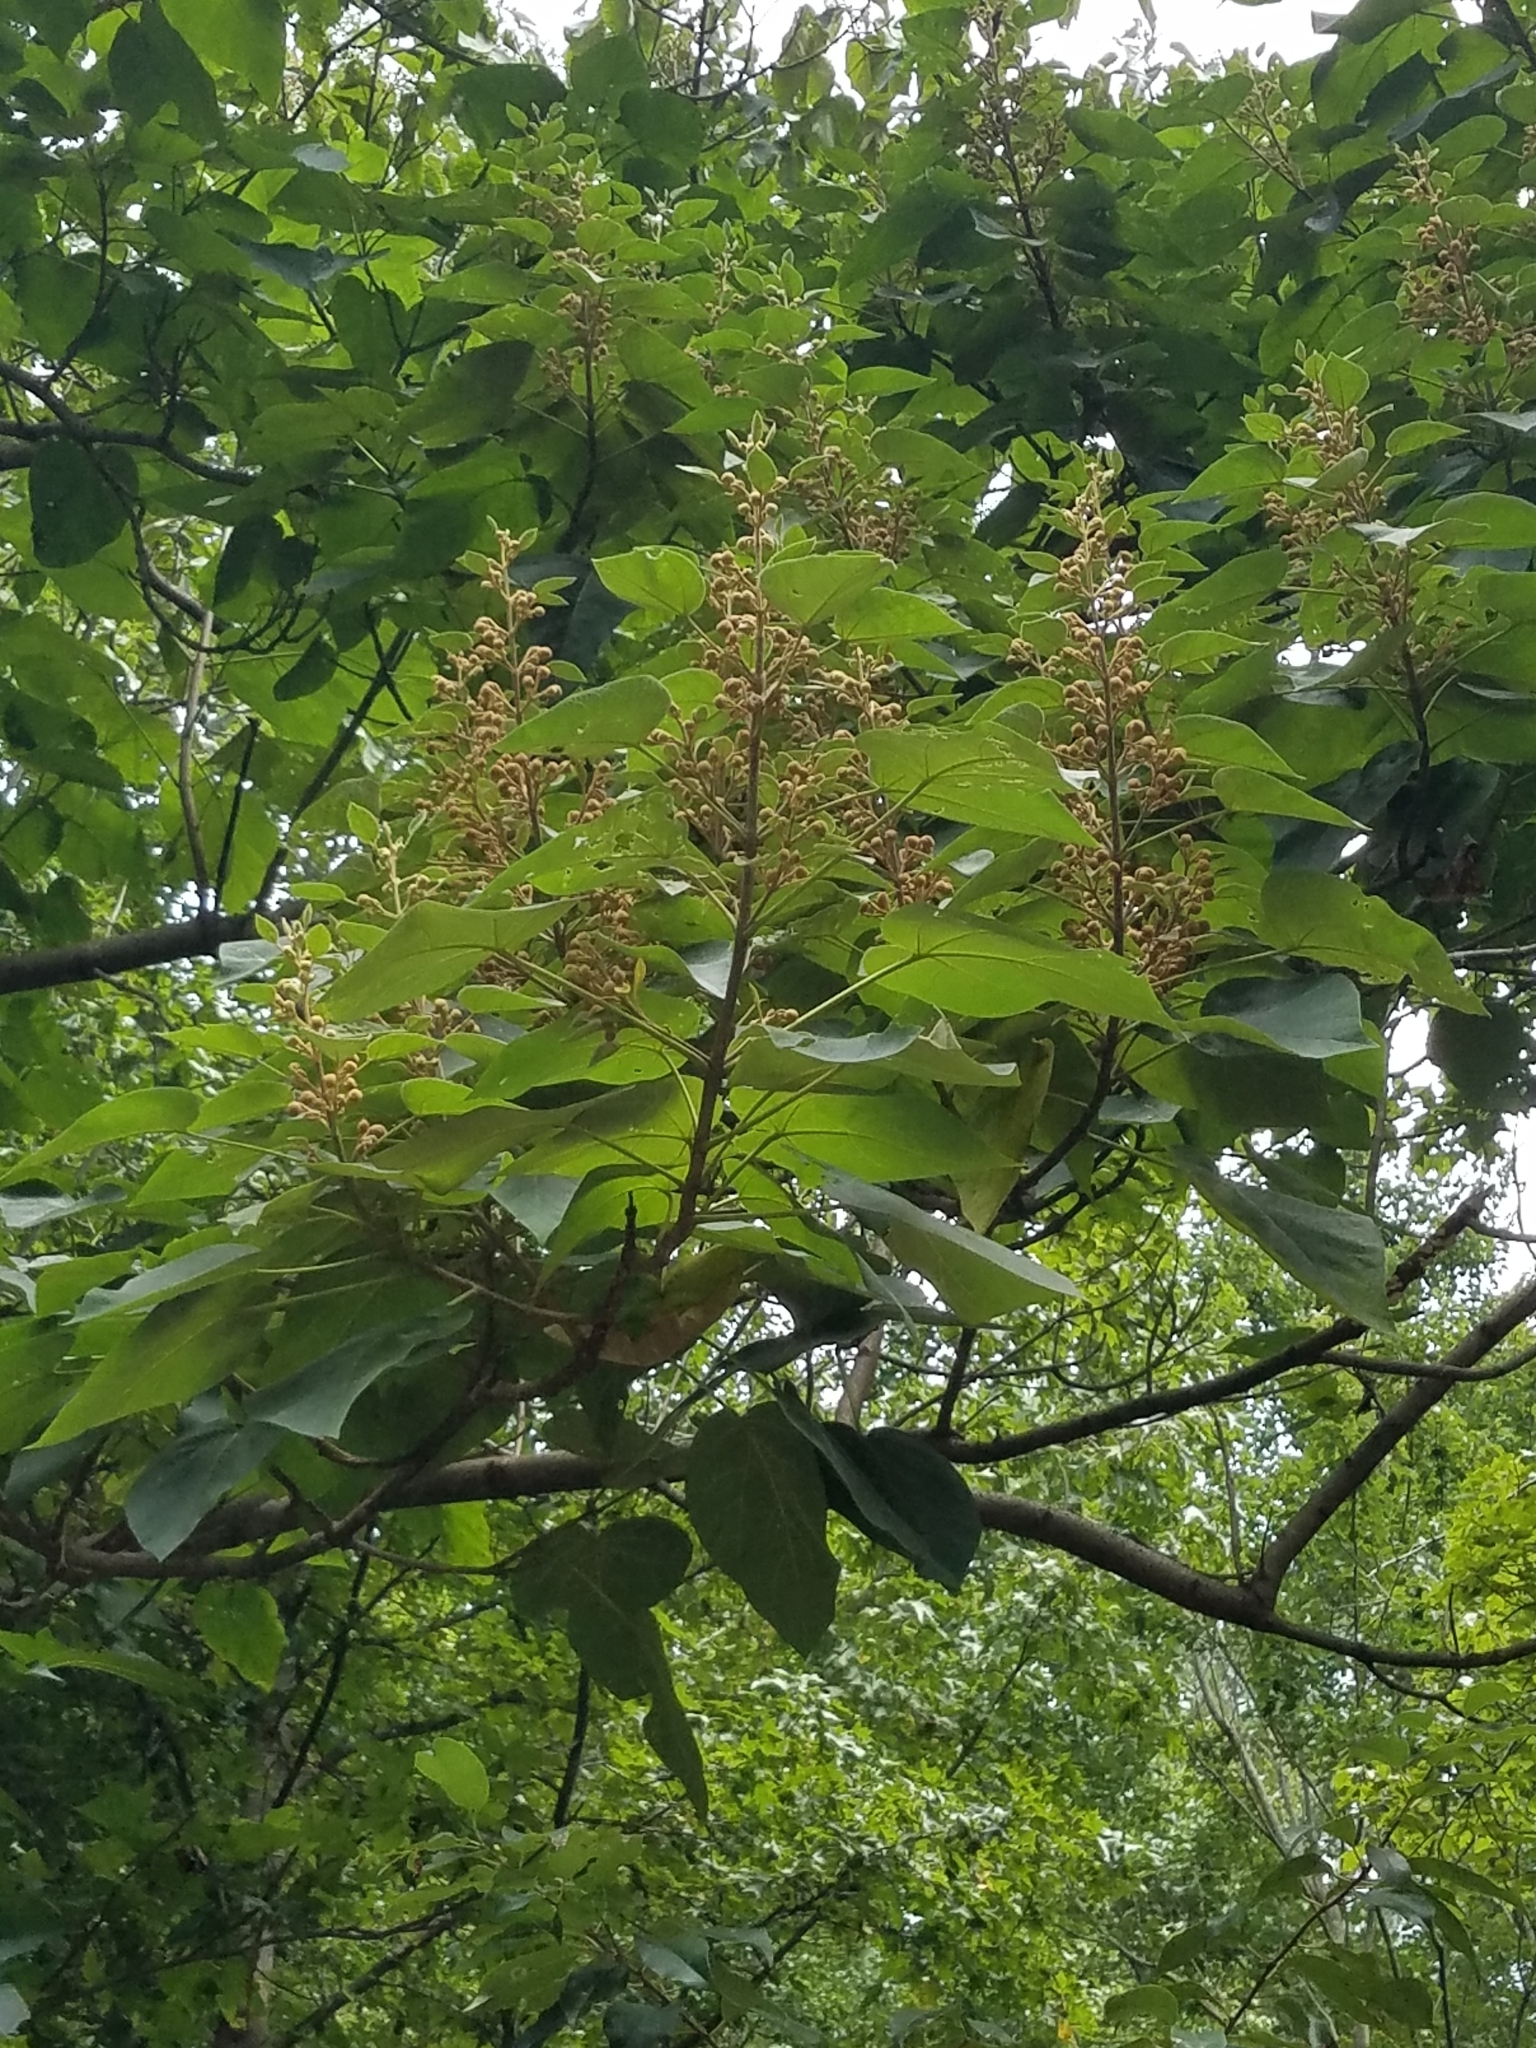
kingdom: Plantae
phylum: Tracheophyta
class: Magnoliopsida
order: Lamiales
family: Bignoniaceae
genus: Catalpa
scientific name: Catalpa bignonioides
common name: Southern catalpa
